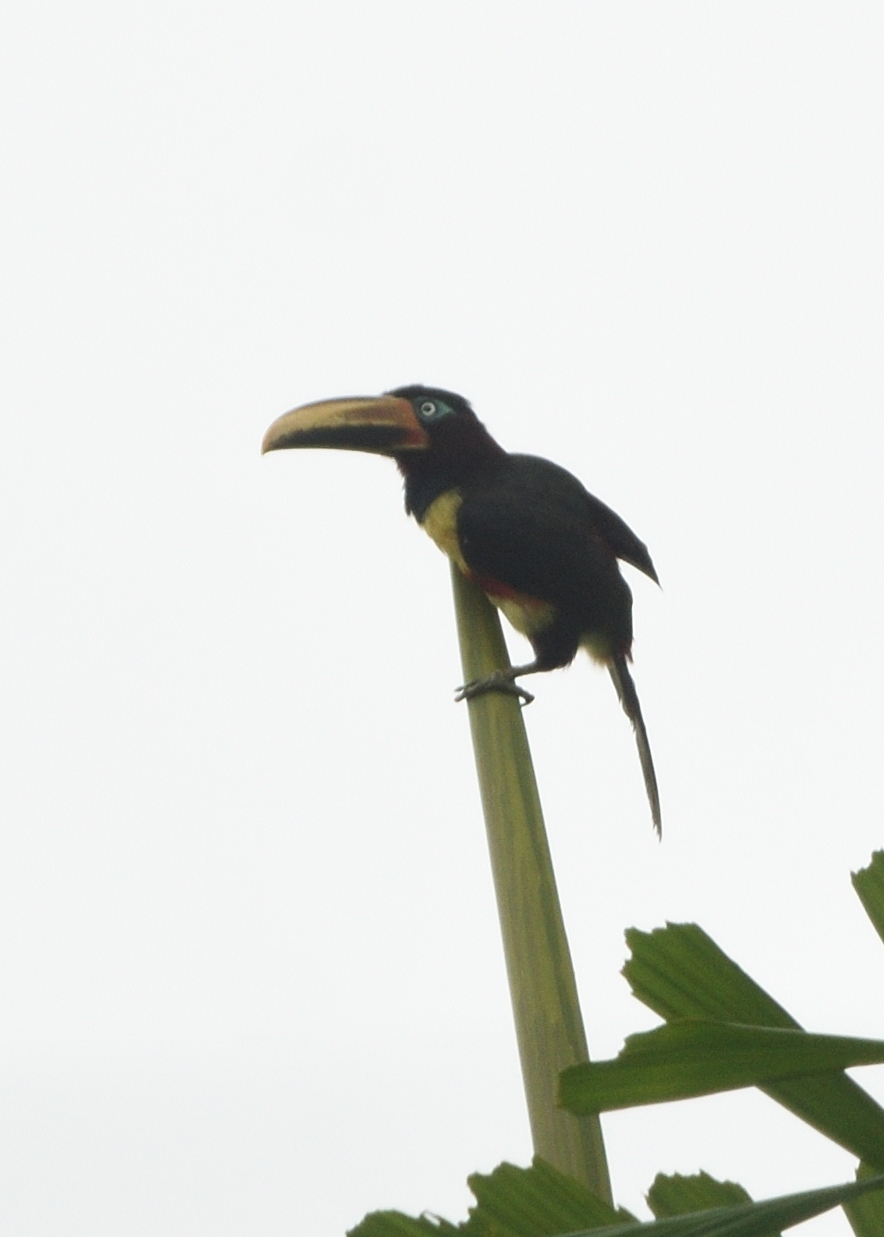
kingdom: Animalia
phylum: Chordata
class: Aves
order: Piciformes
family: Ramphastidae
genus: Pteroglossus
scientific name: Pteroglossus castanotis
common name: Chestnut-eared aracari
